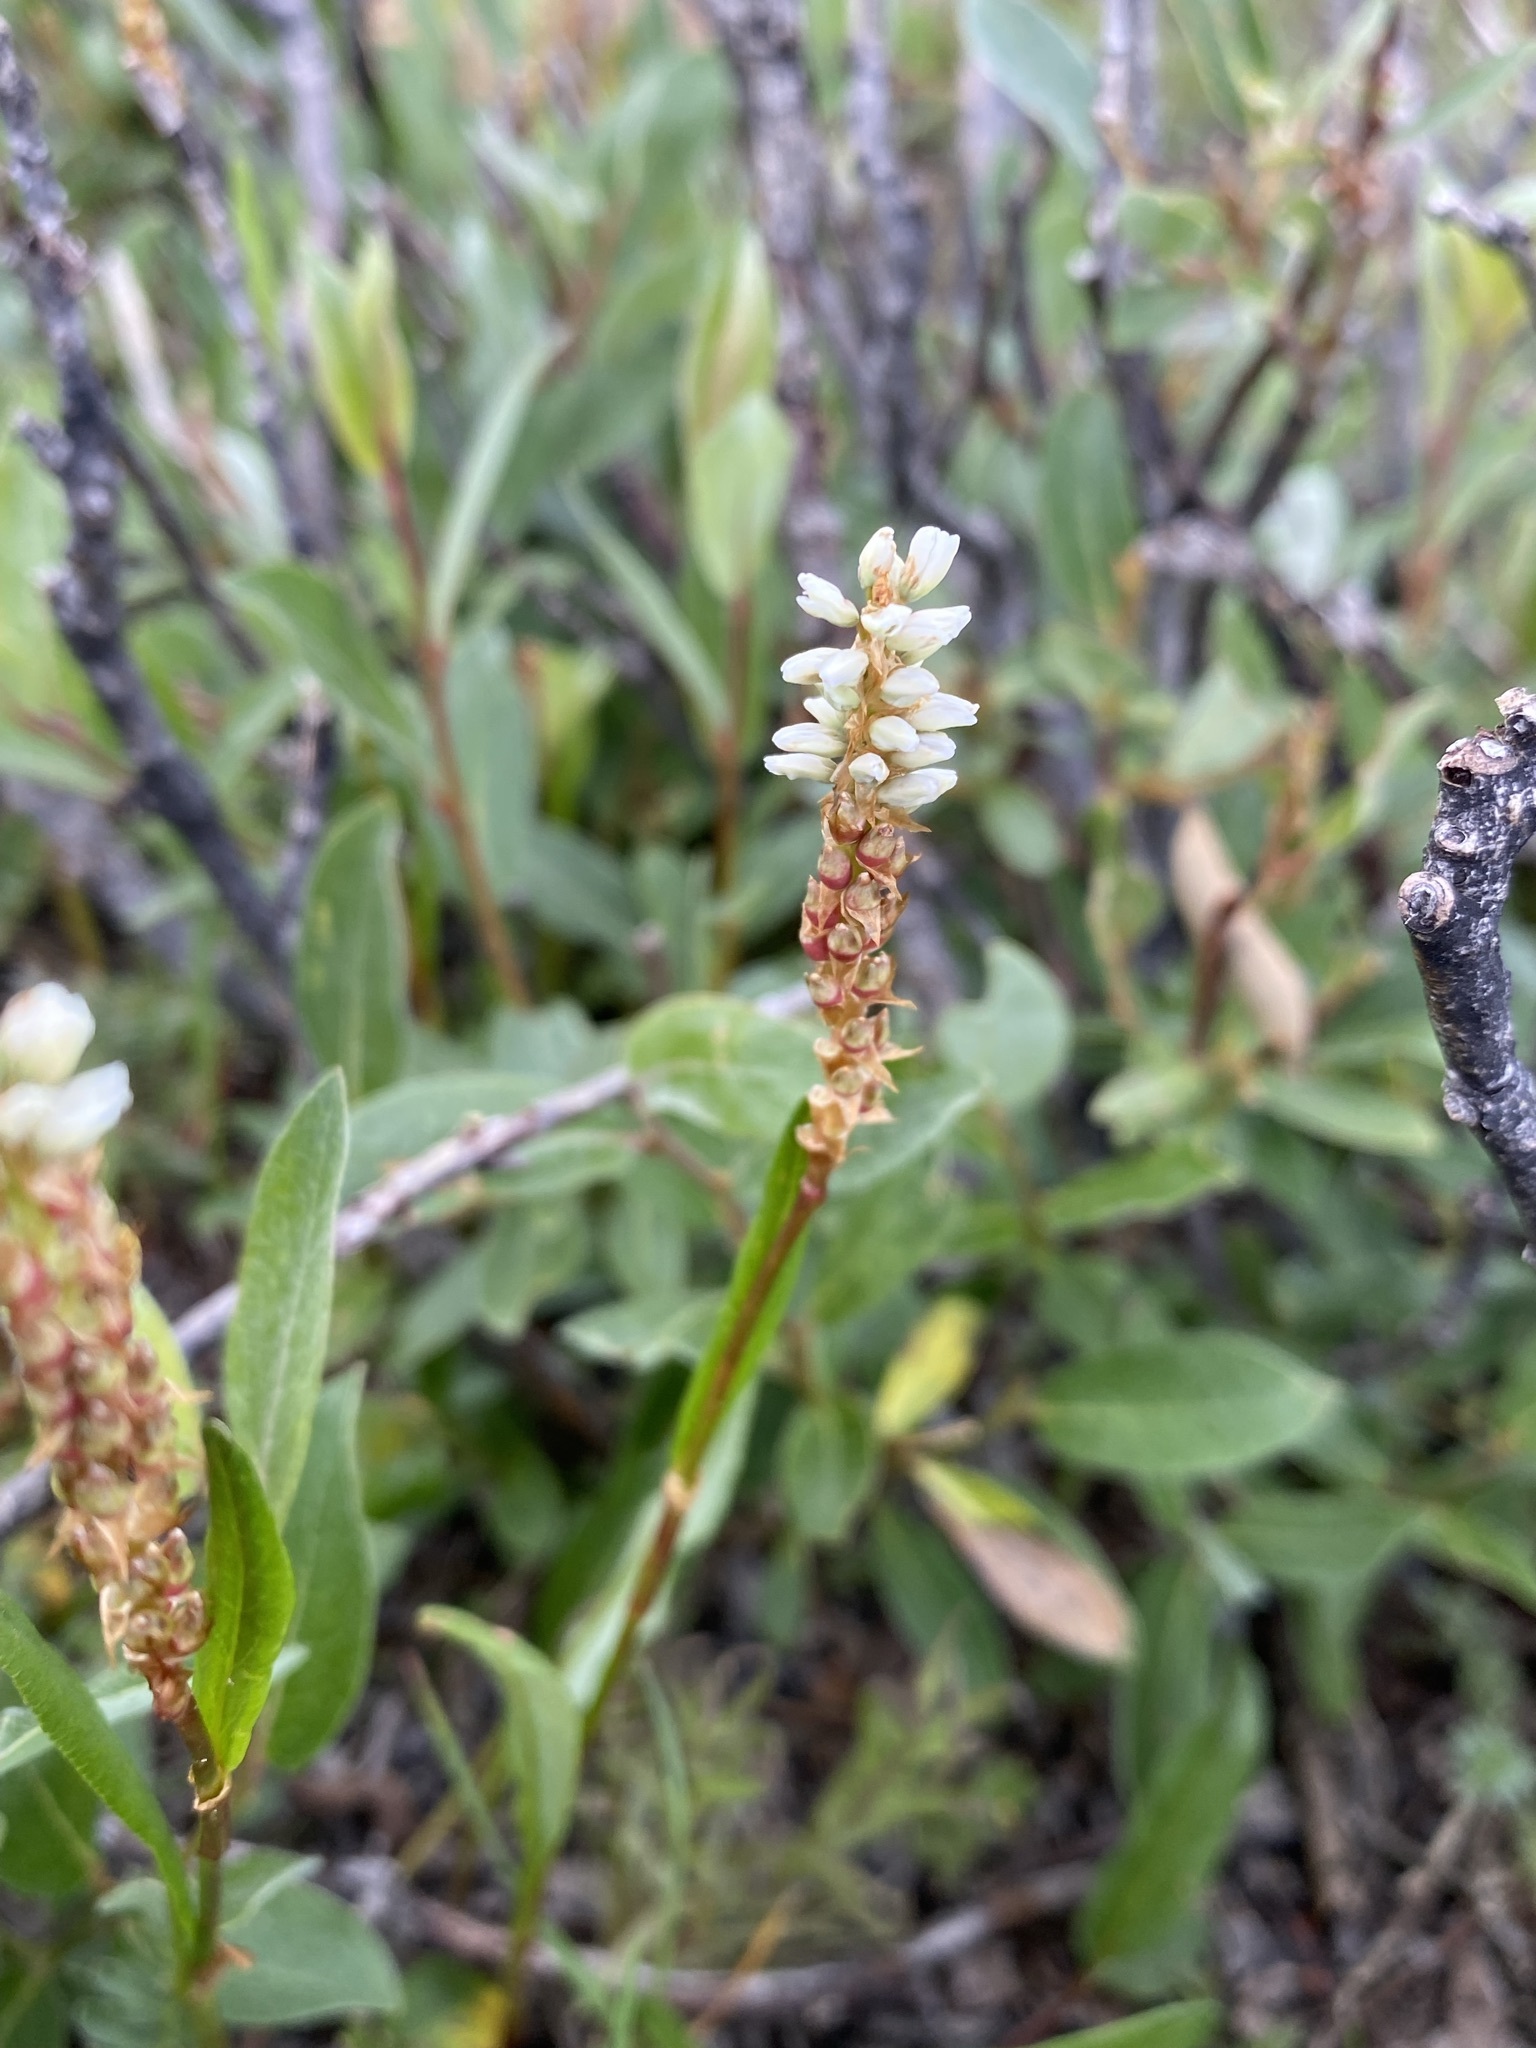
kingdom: Plantae
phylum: Tracheophyta
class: Magnoliopsida
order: Caryophyllales
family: Polygonaceae
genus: Bistorta
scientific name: Bistorta vivipara
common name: Alpine bistort
